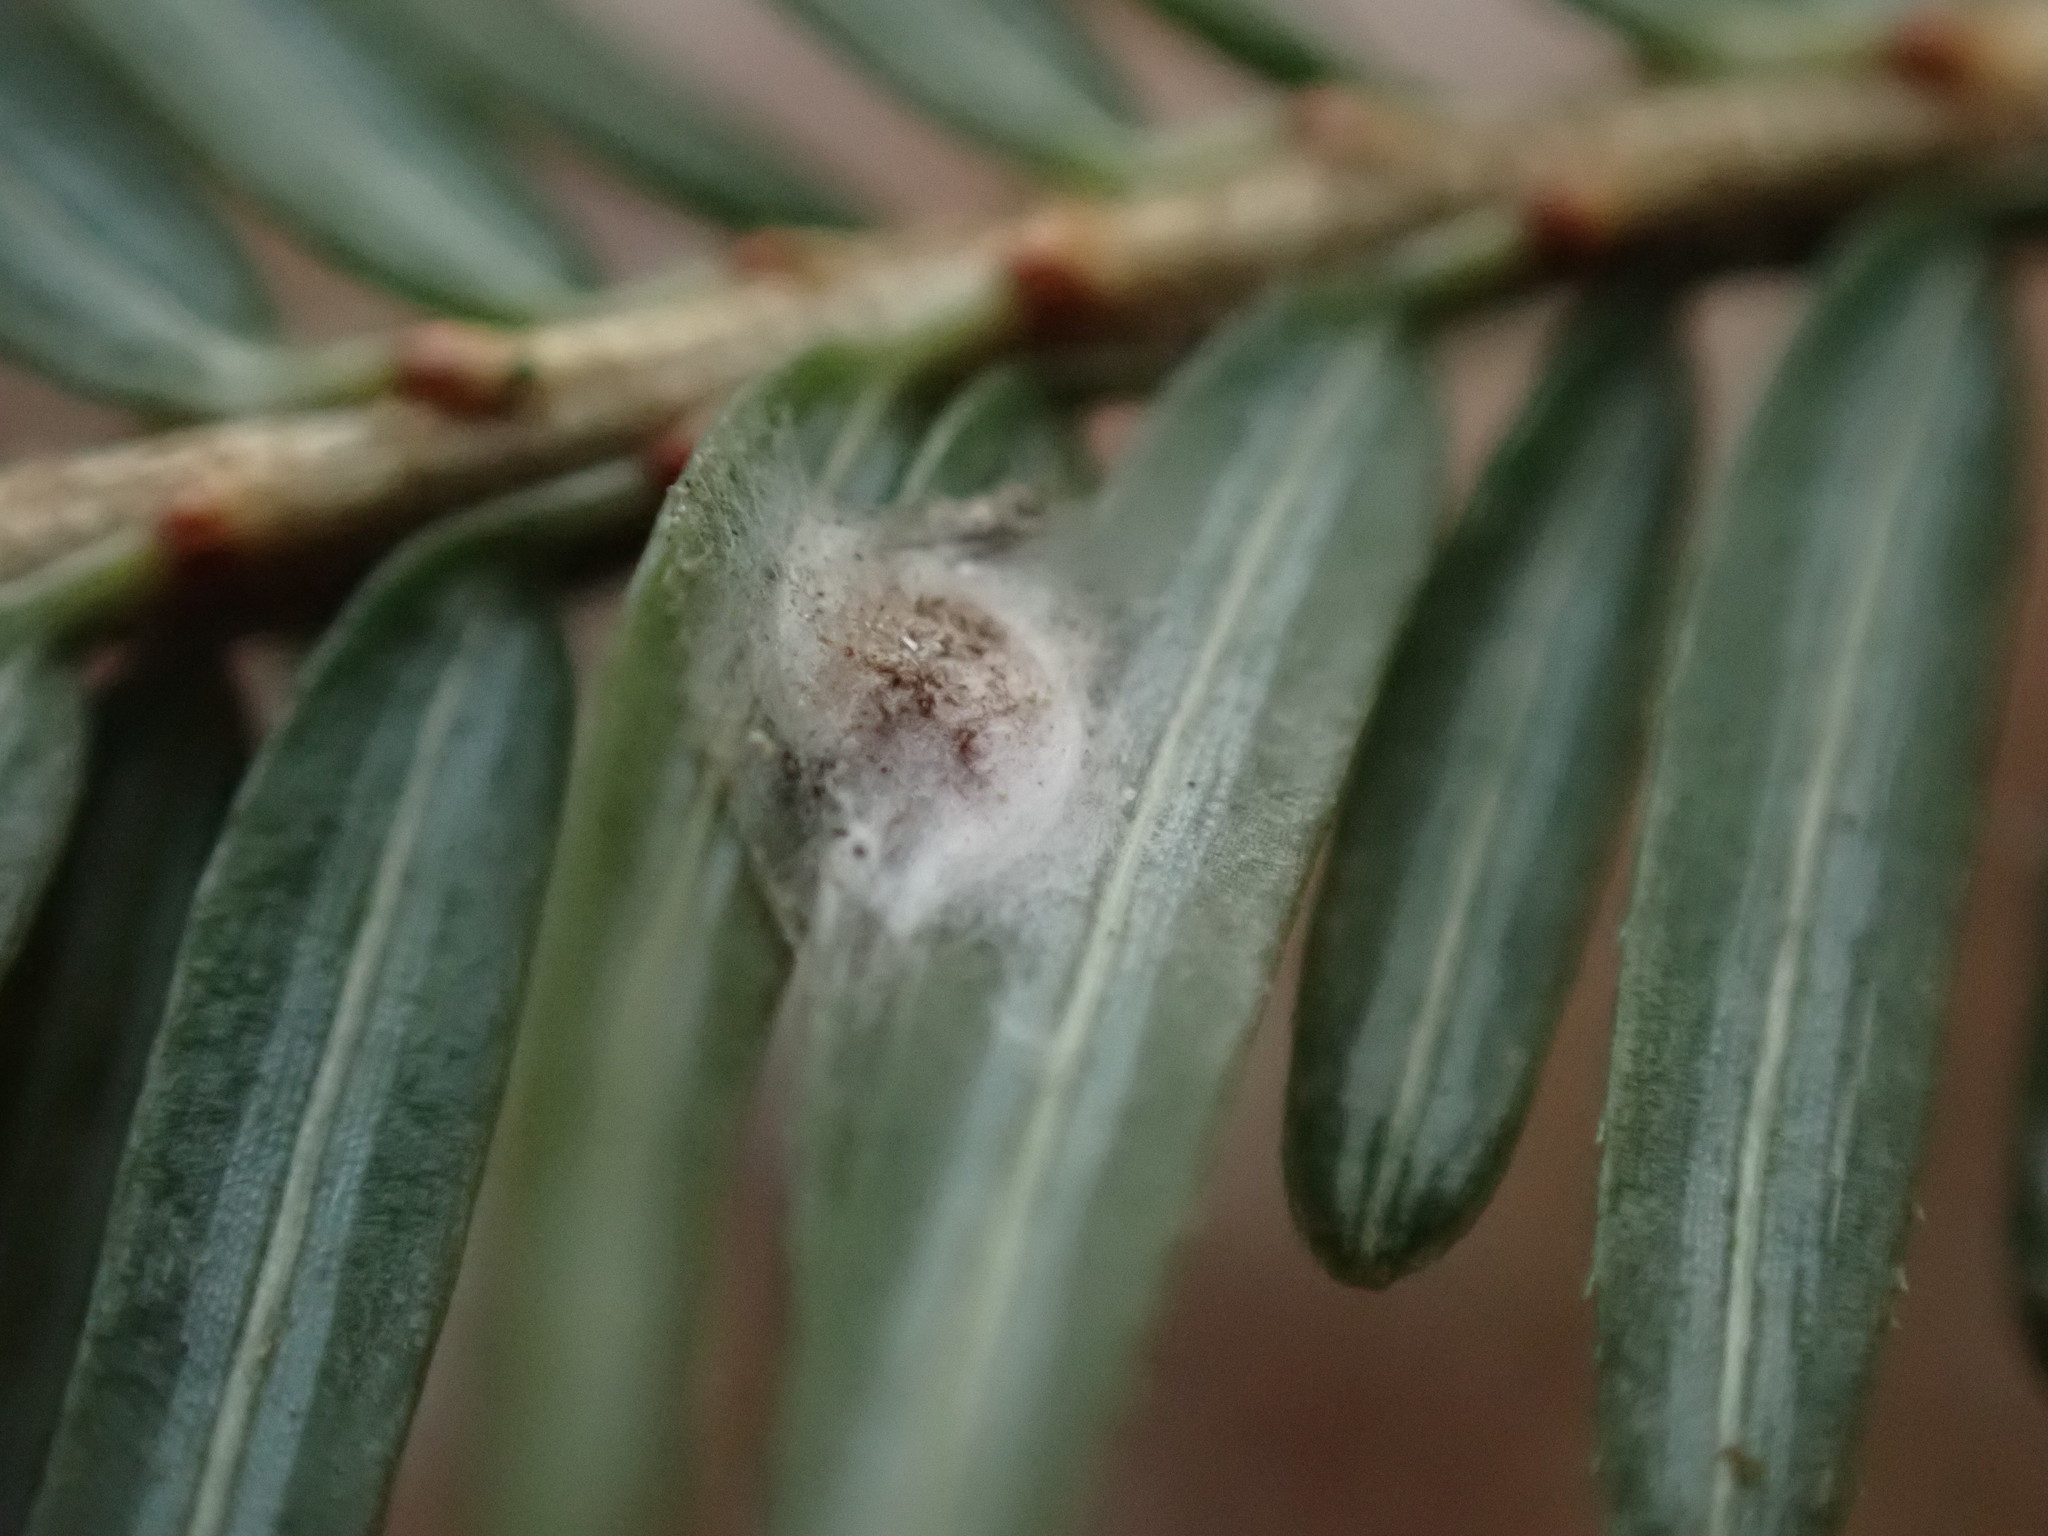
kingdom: Plantae
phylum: Tracheophyta
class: Pinopsida
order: Pinales
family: Pinaceae
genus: Tsuga
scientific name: Tsuga canadensis
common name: Eastern hemlock
